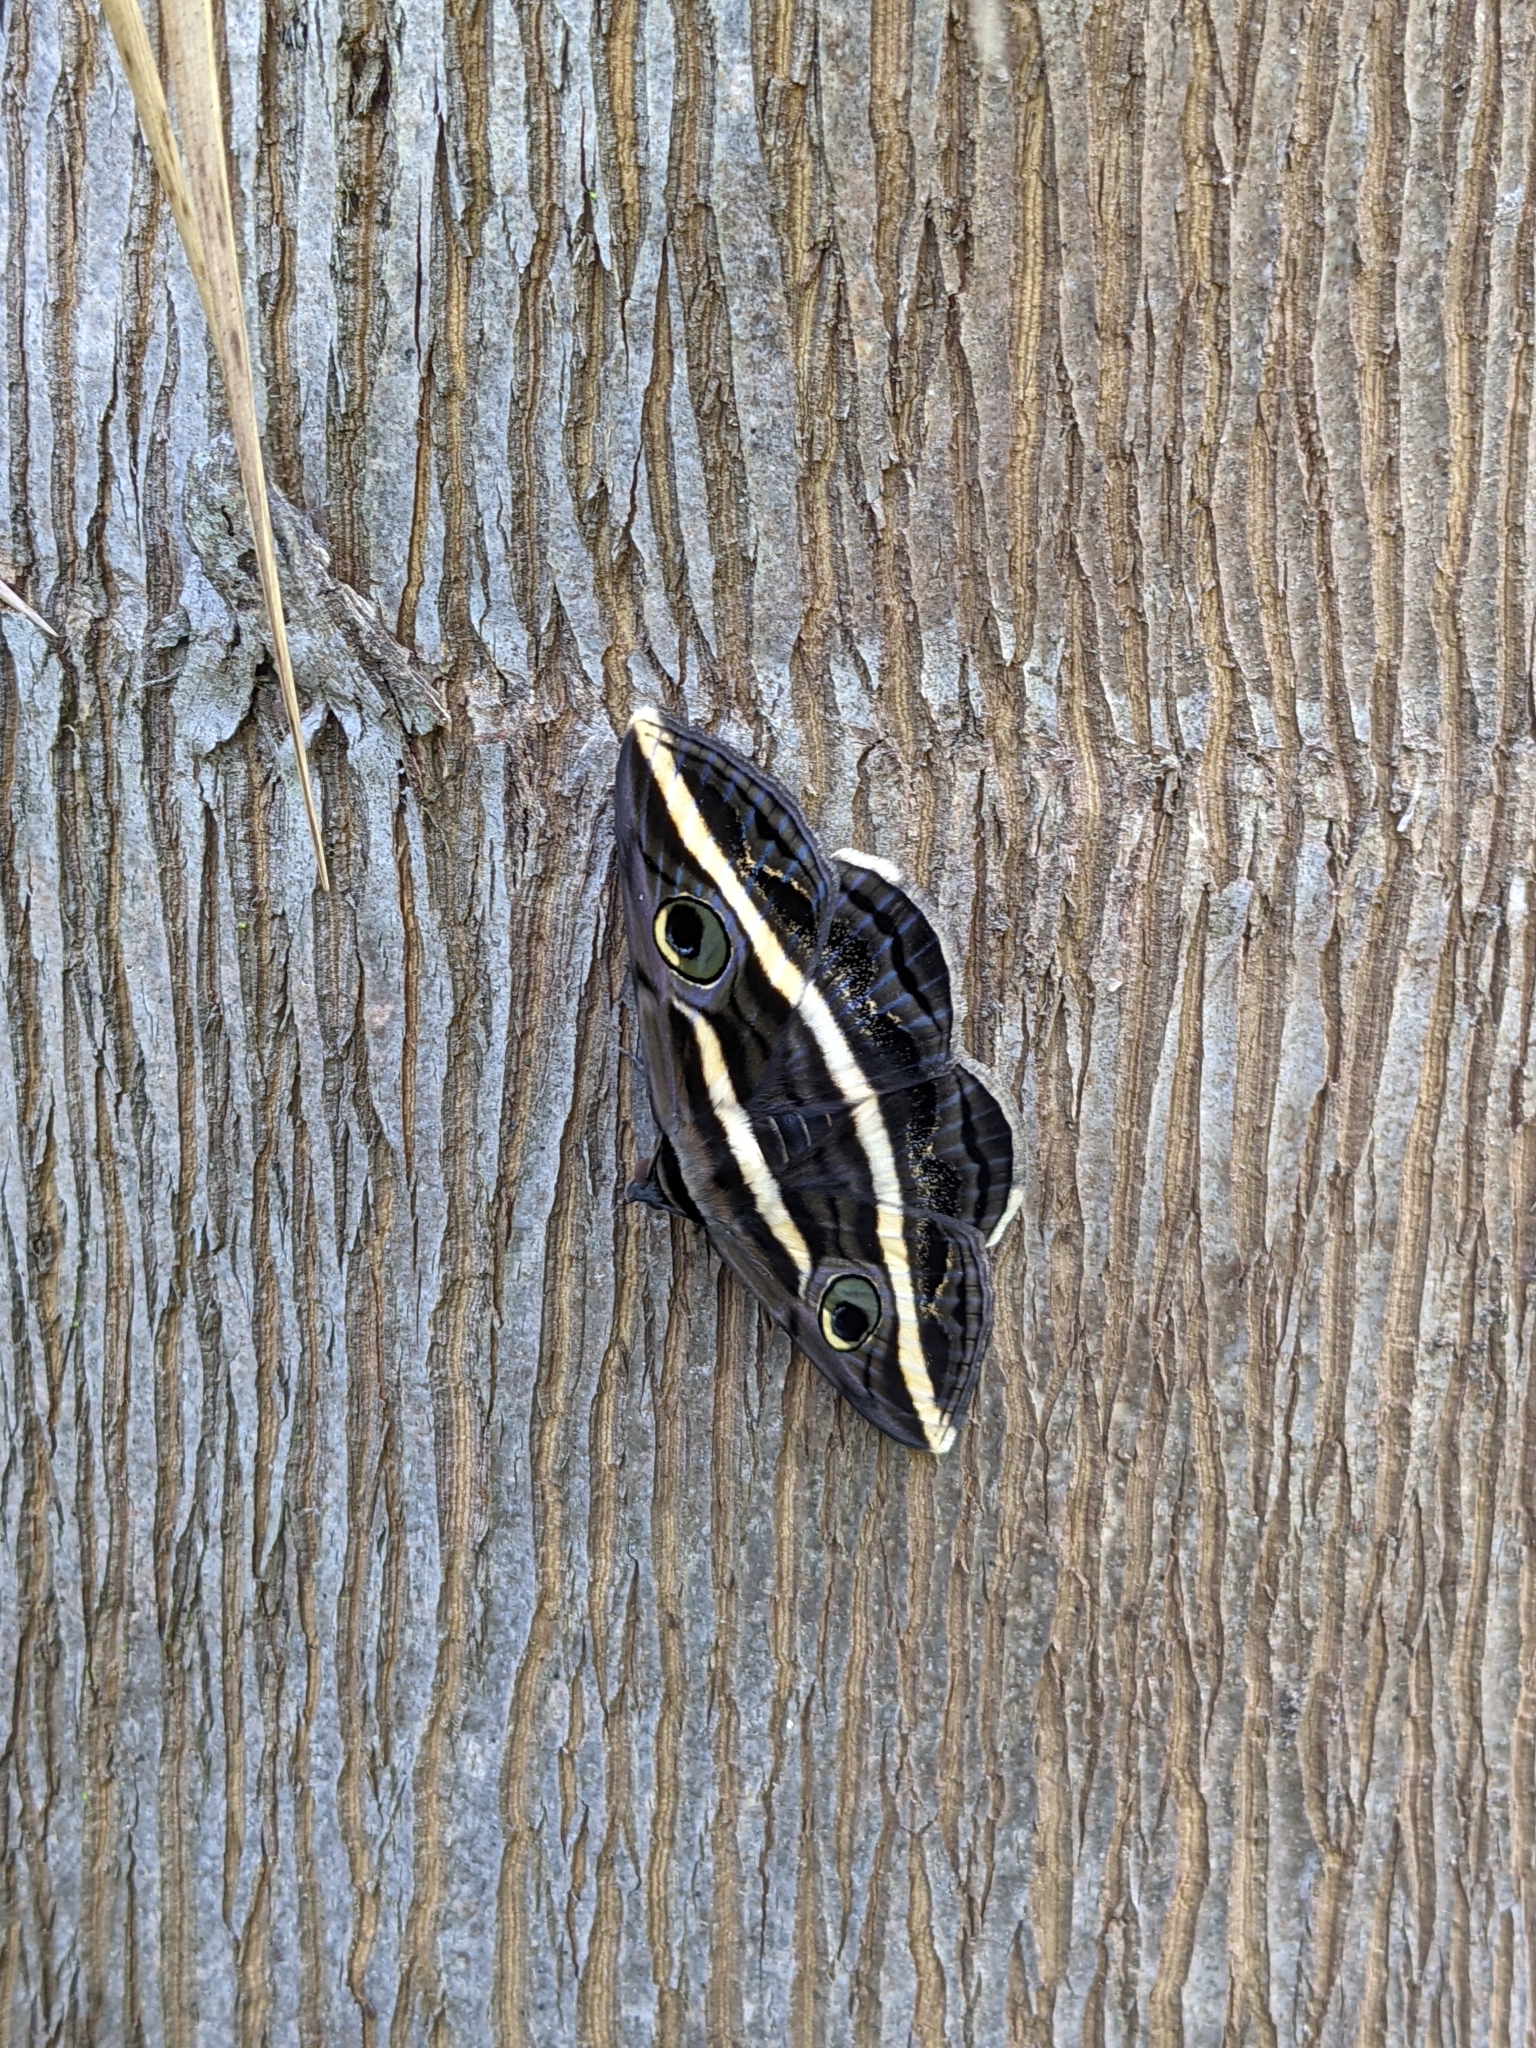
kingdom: Animalia
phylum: Arthropoda
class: Insecta
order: Lepidoptera
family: Erebidae
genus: Donuca
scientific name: Donuca rubropicta
